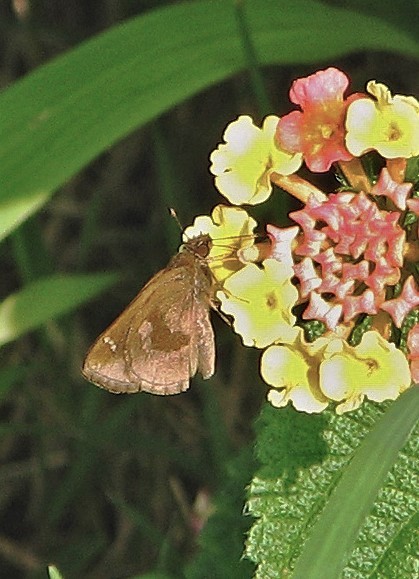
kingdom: Animalia
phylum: Arthropoda
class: Insecta
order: Lepidoptera
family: Hesperiidae
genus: Cymaenes
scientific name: Cymaenes
